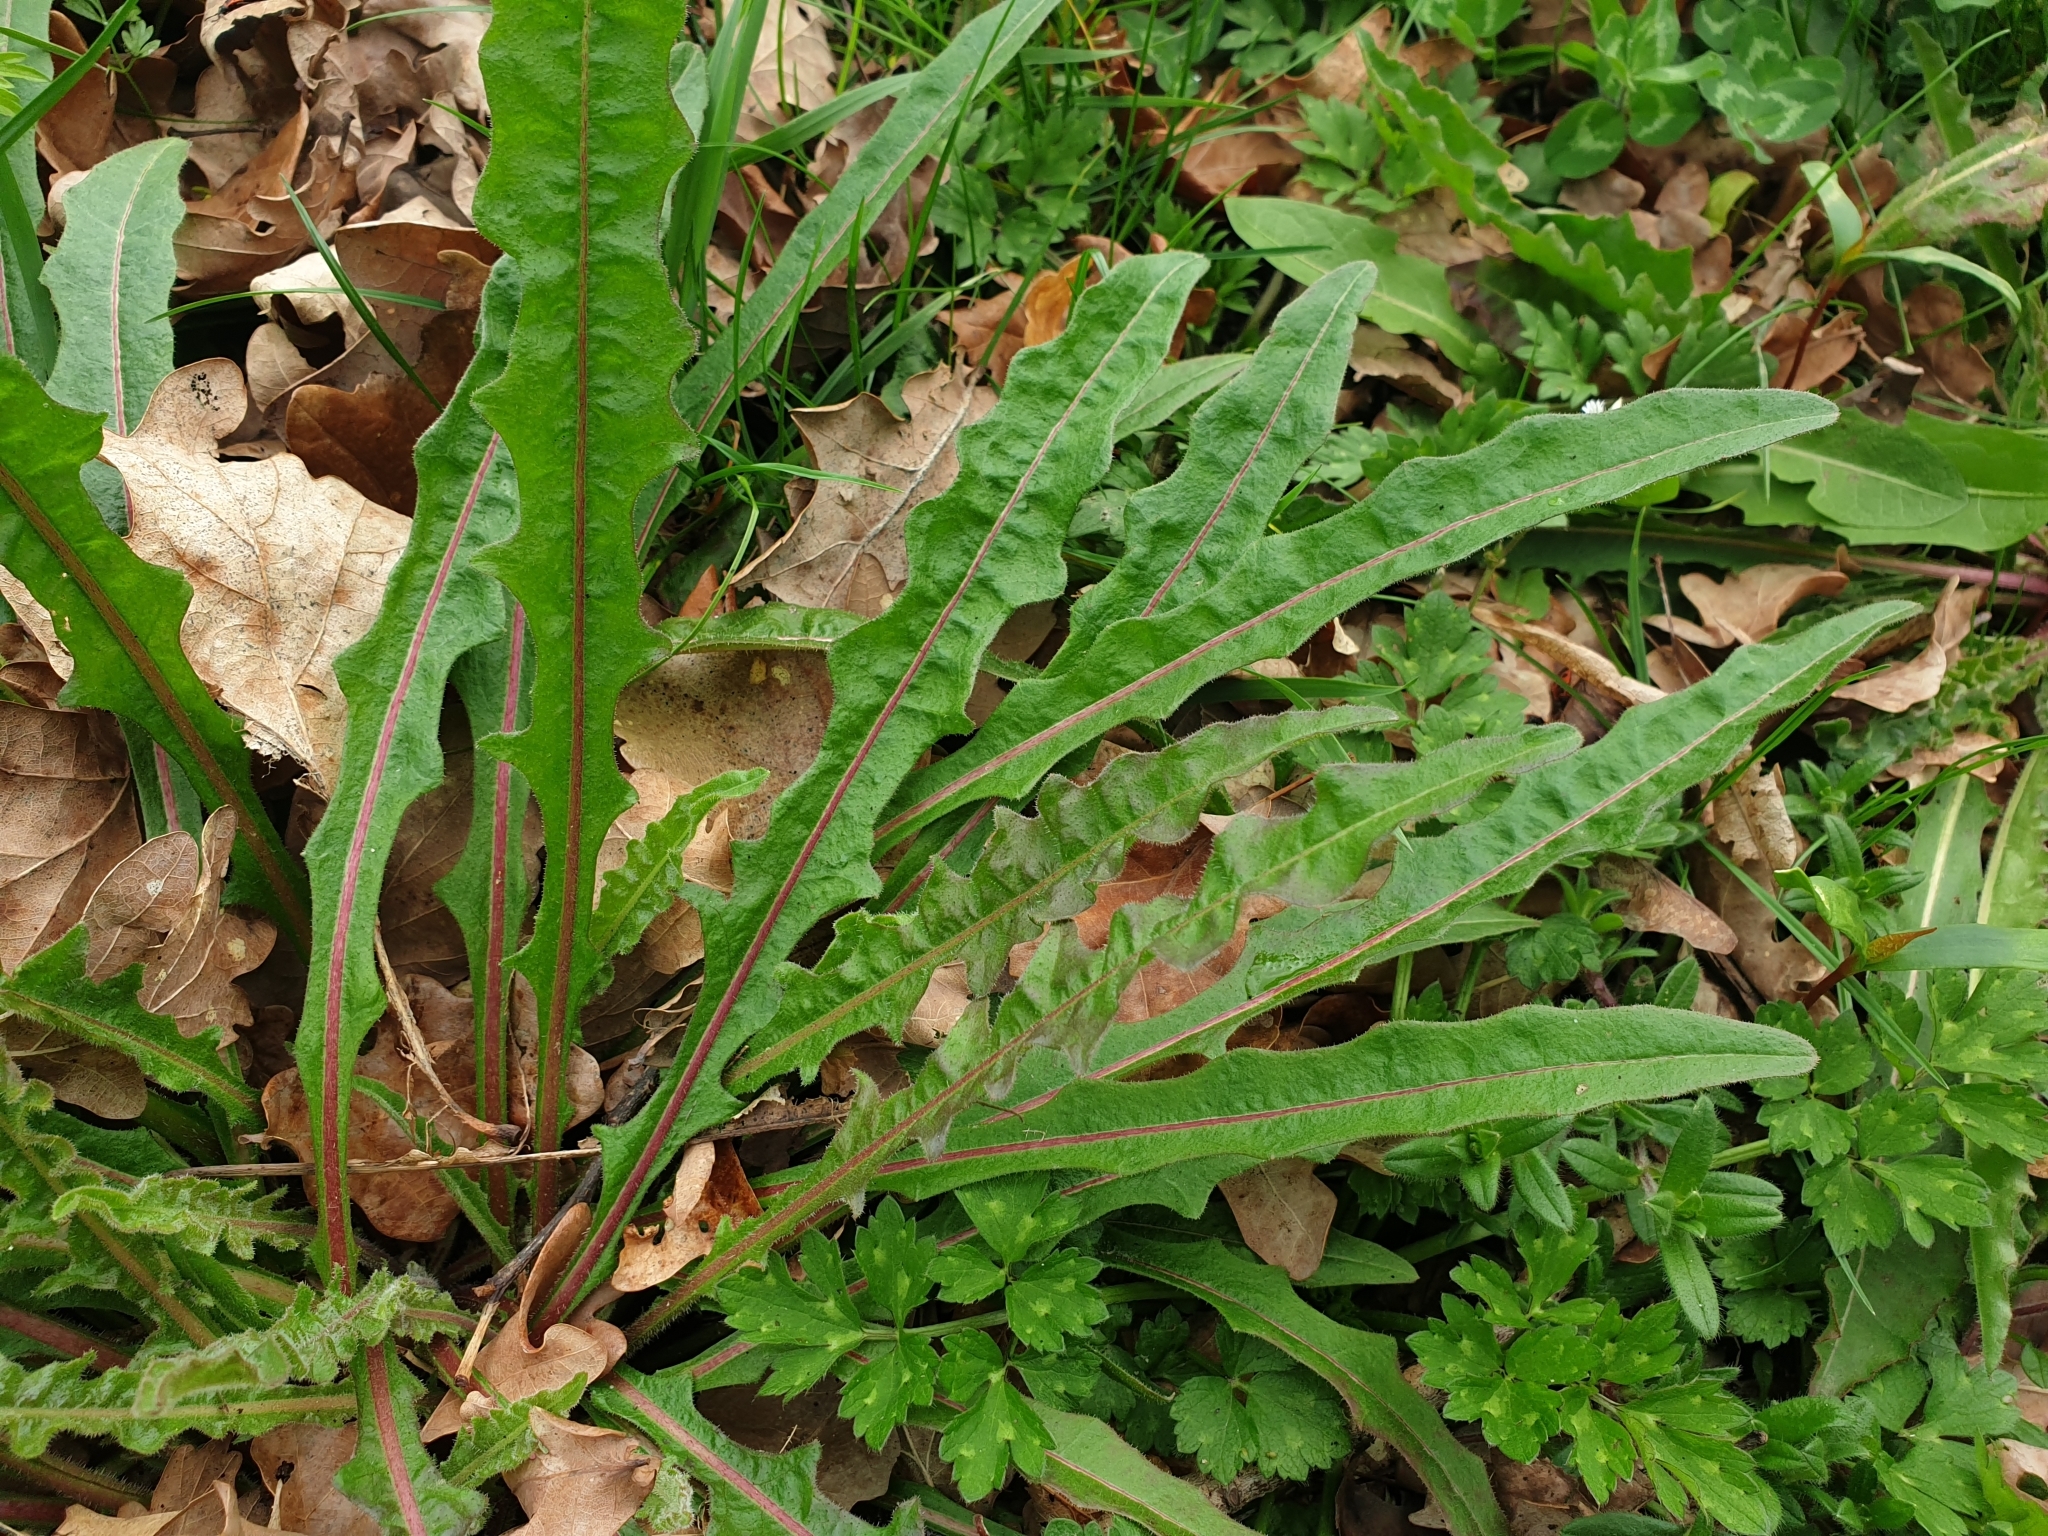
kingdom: Plantae
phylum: Tracheophyta
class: Magnoliopsida
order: Asterales
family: Asteraceae
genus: Picris
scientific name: Picris hieracioides
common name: Hawkweed oxtongue
